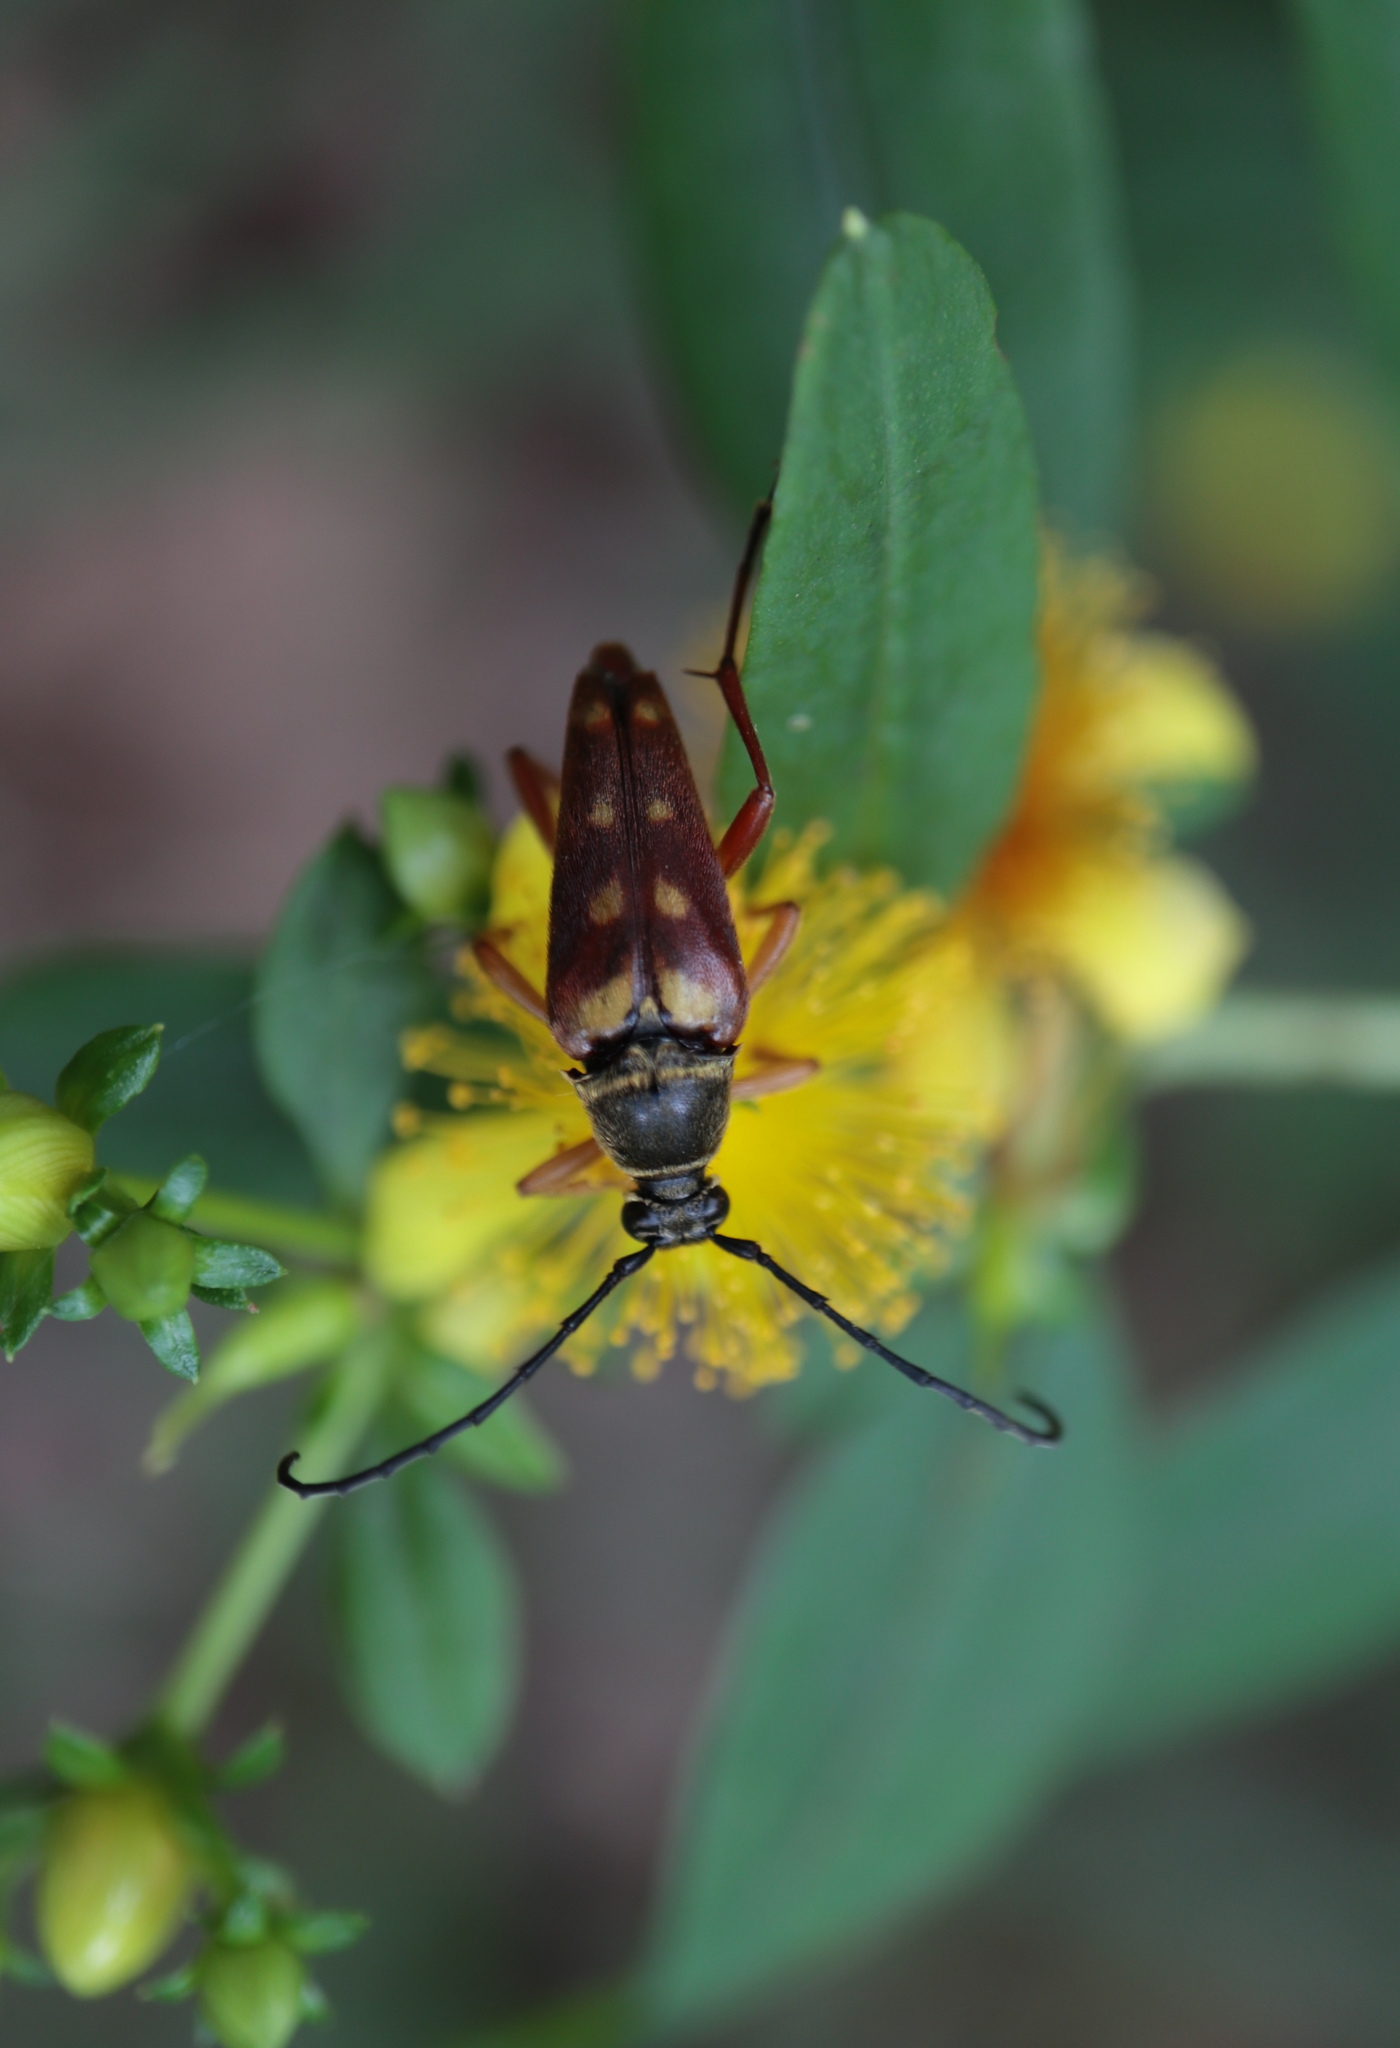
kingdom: Animalia
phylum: Arthropoda
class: Insecta
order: Coleoptera
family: Cerambycidae
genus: Typocerus
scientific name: Typocerus velutinus
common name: Banded longhorn beetle
